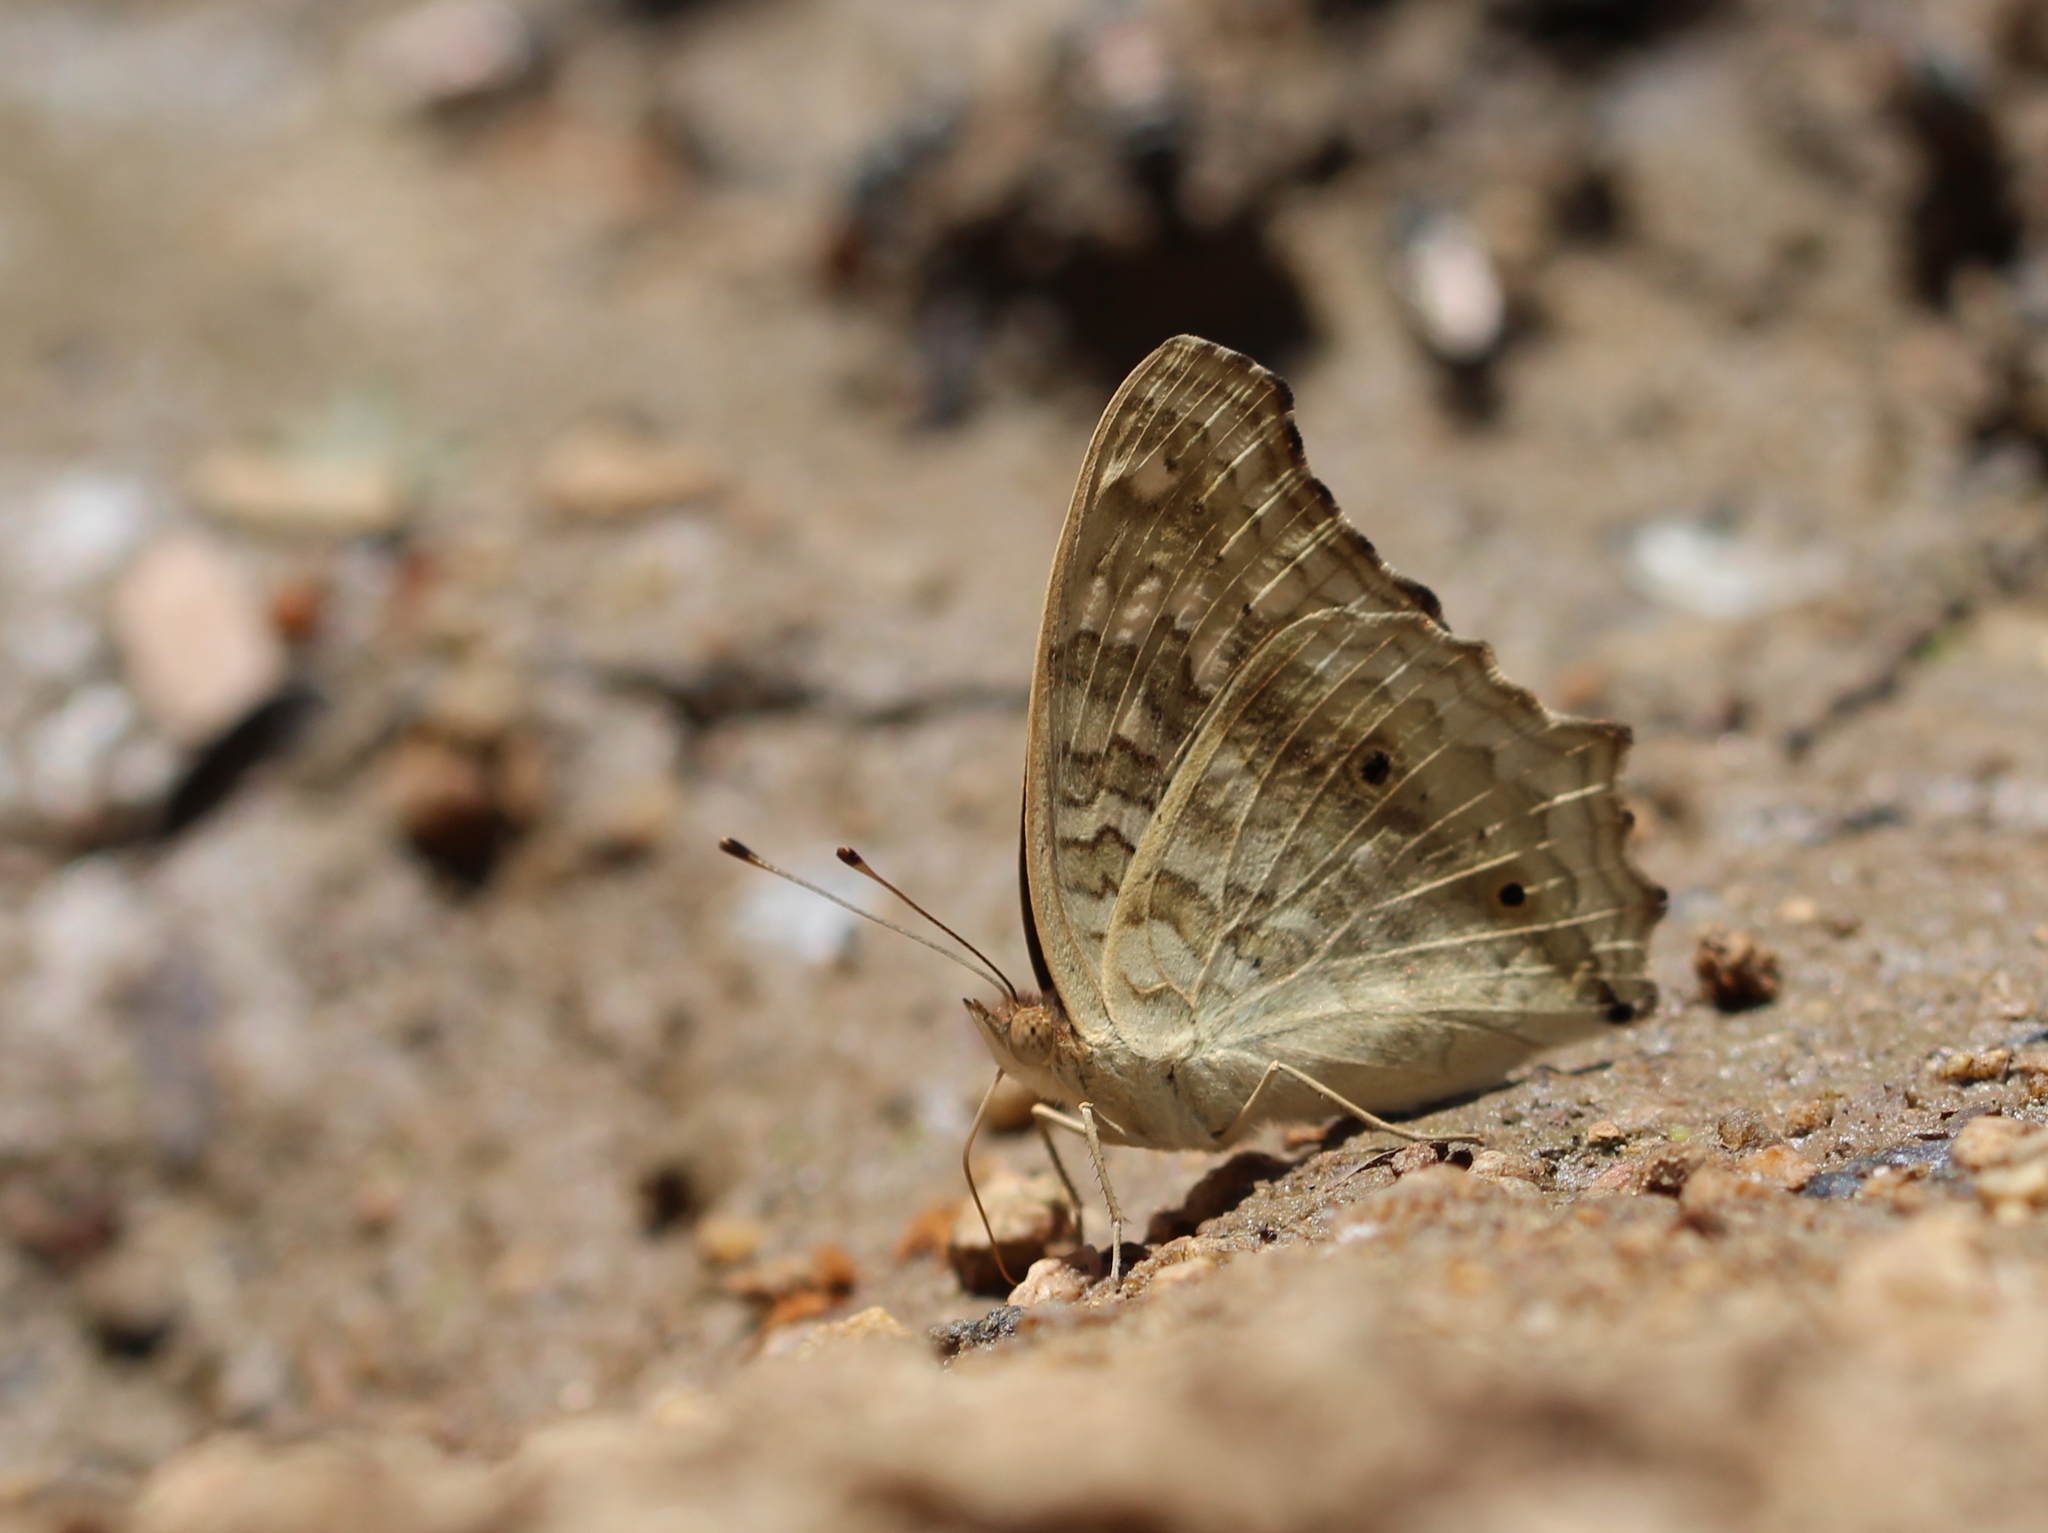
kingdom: Animalia
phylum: Arthropoda
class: Insecta
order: Lepidoptera
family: Nymphalidae
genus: Junonia
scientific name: Junonia lemonias
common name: Lemon pansy
